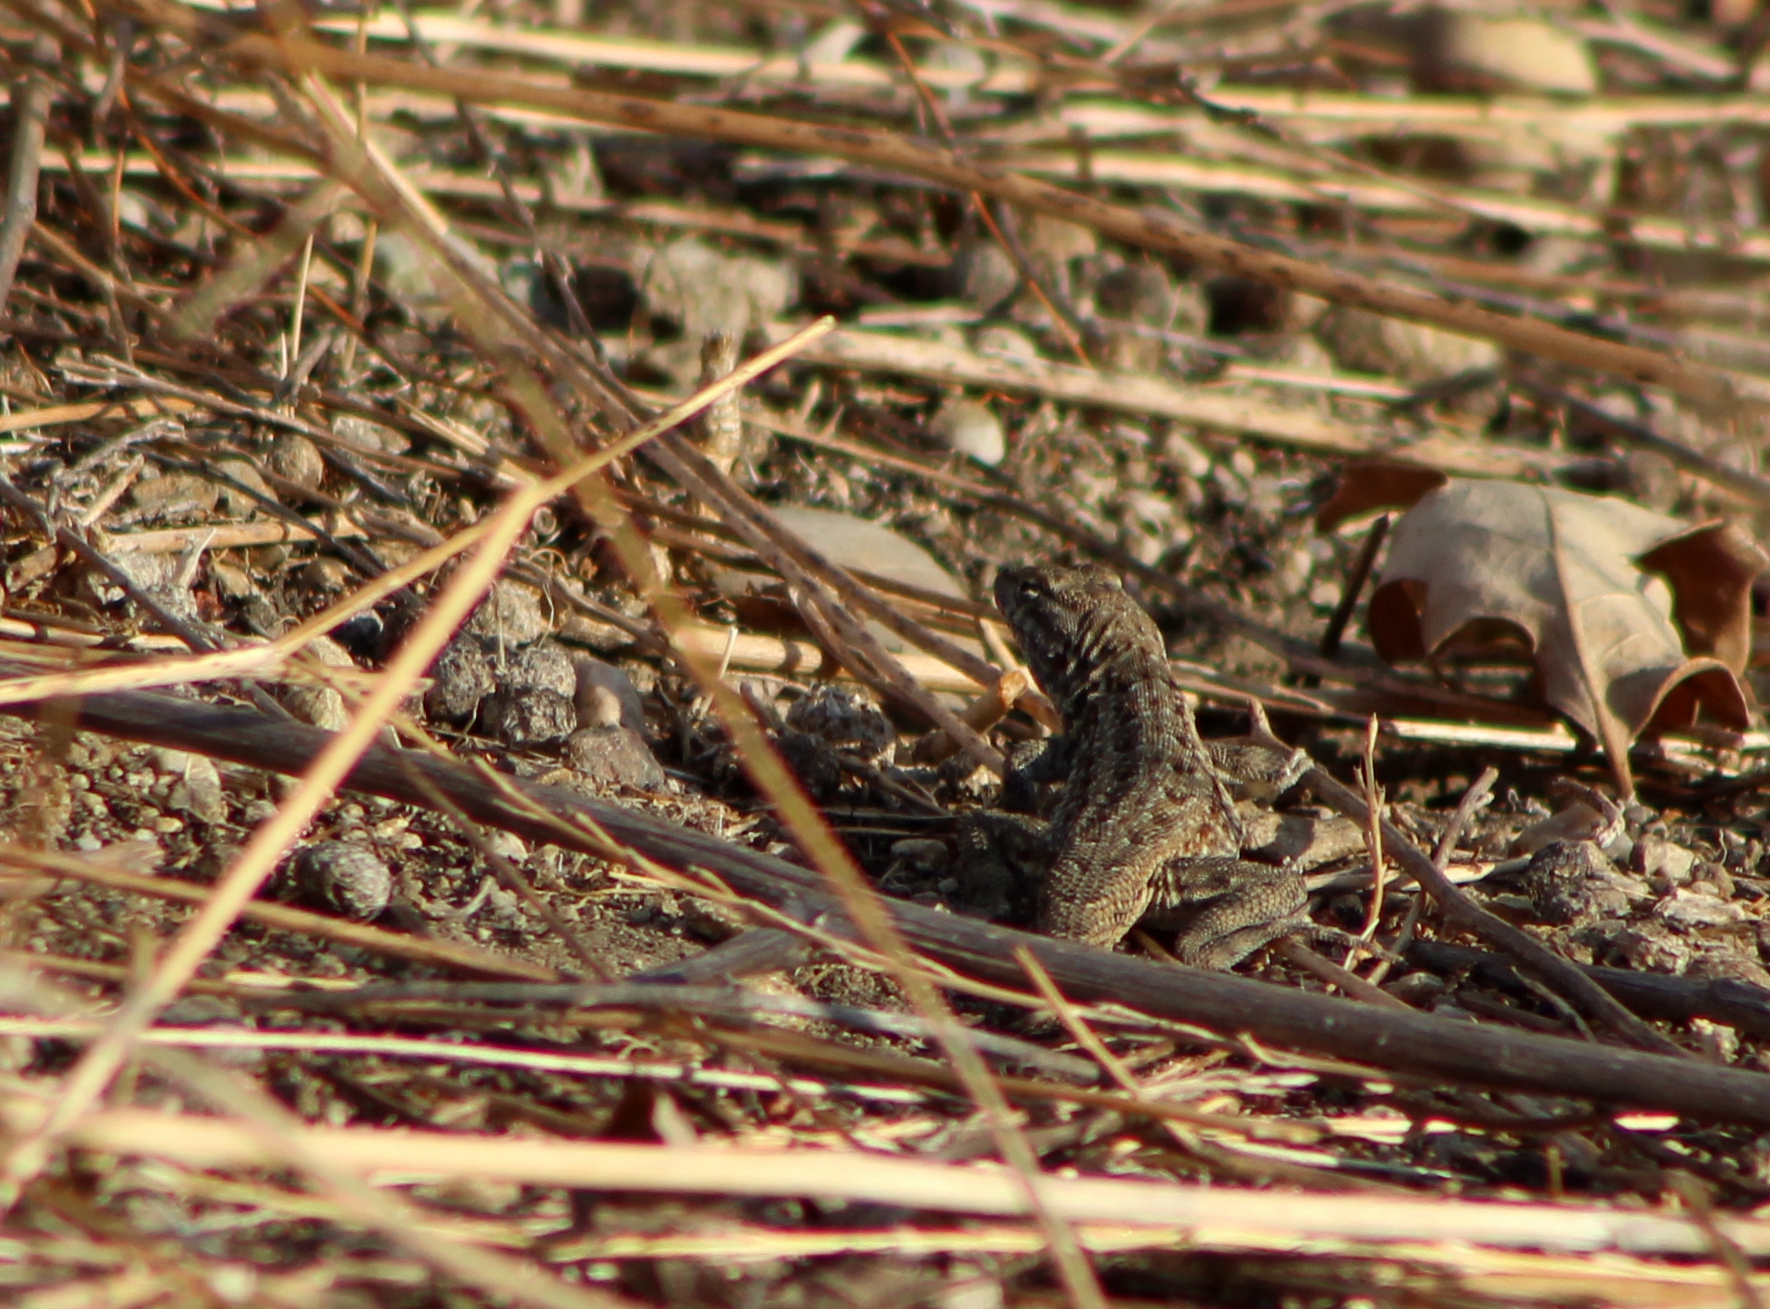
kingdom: Animalia
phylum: Chordata
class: Squamata
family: Phrynosomatidae
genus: Uta
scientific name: Uta stansburiana
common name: Side-blotched lizard
